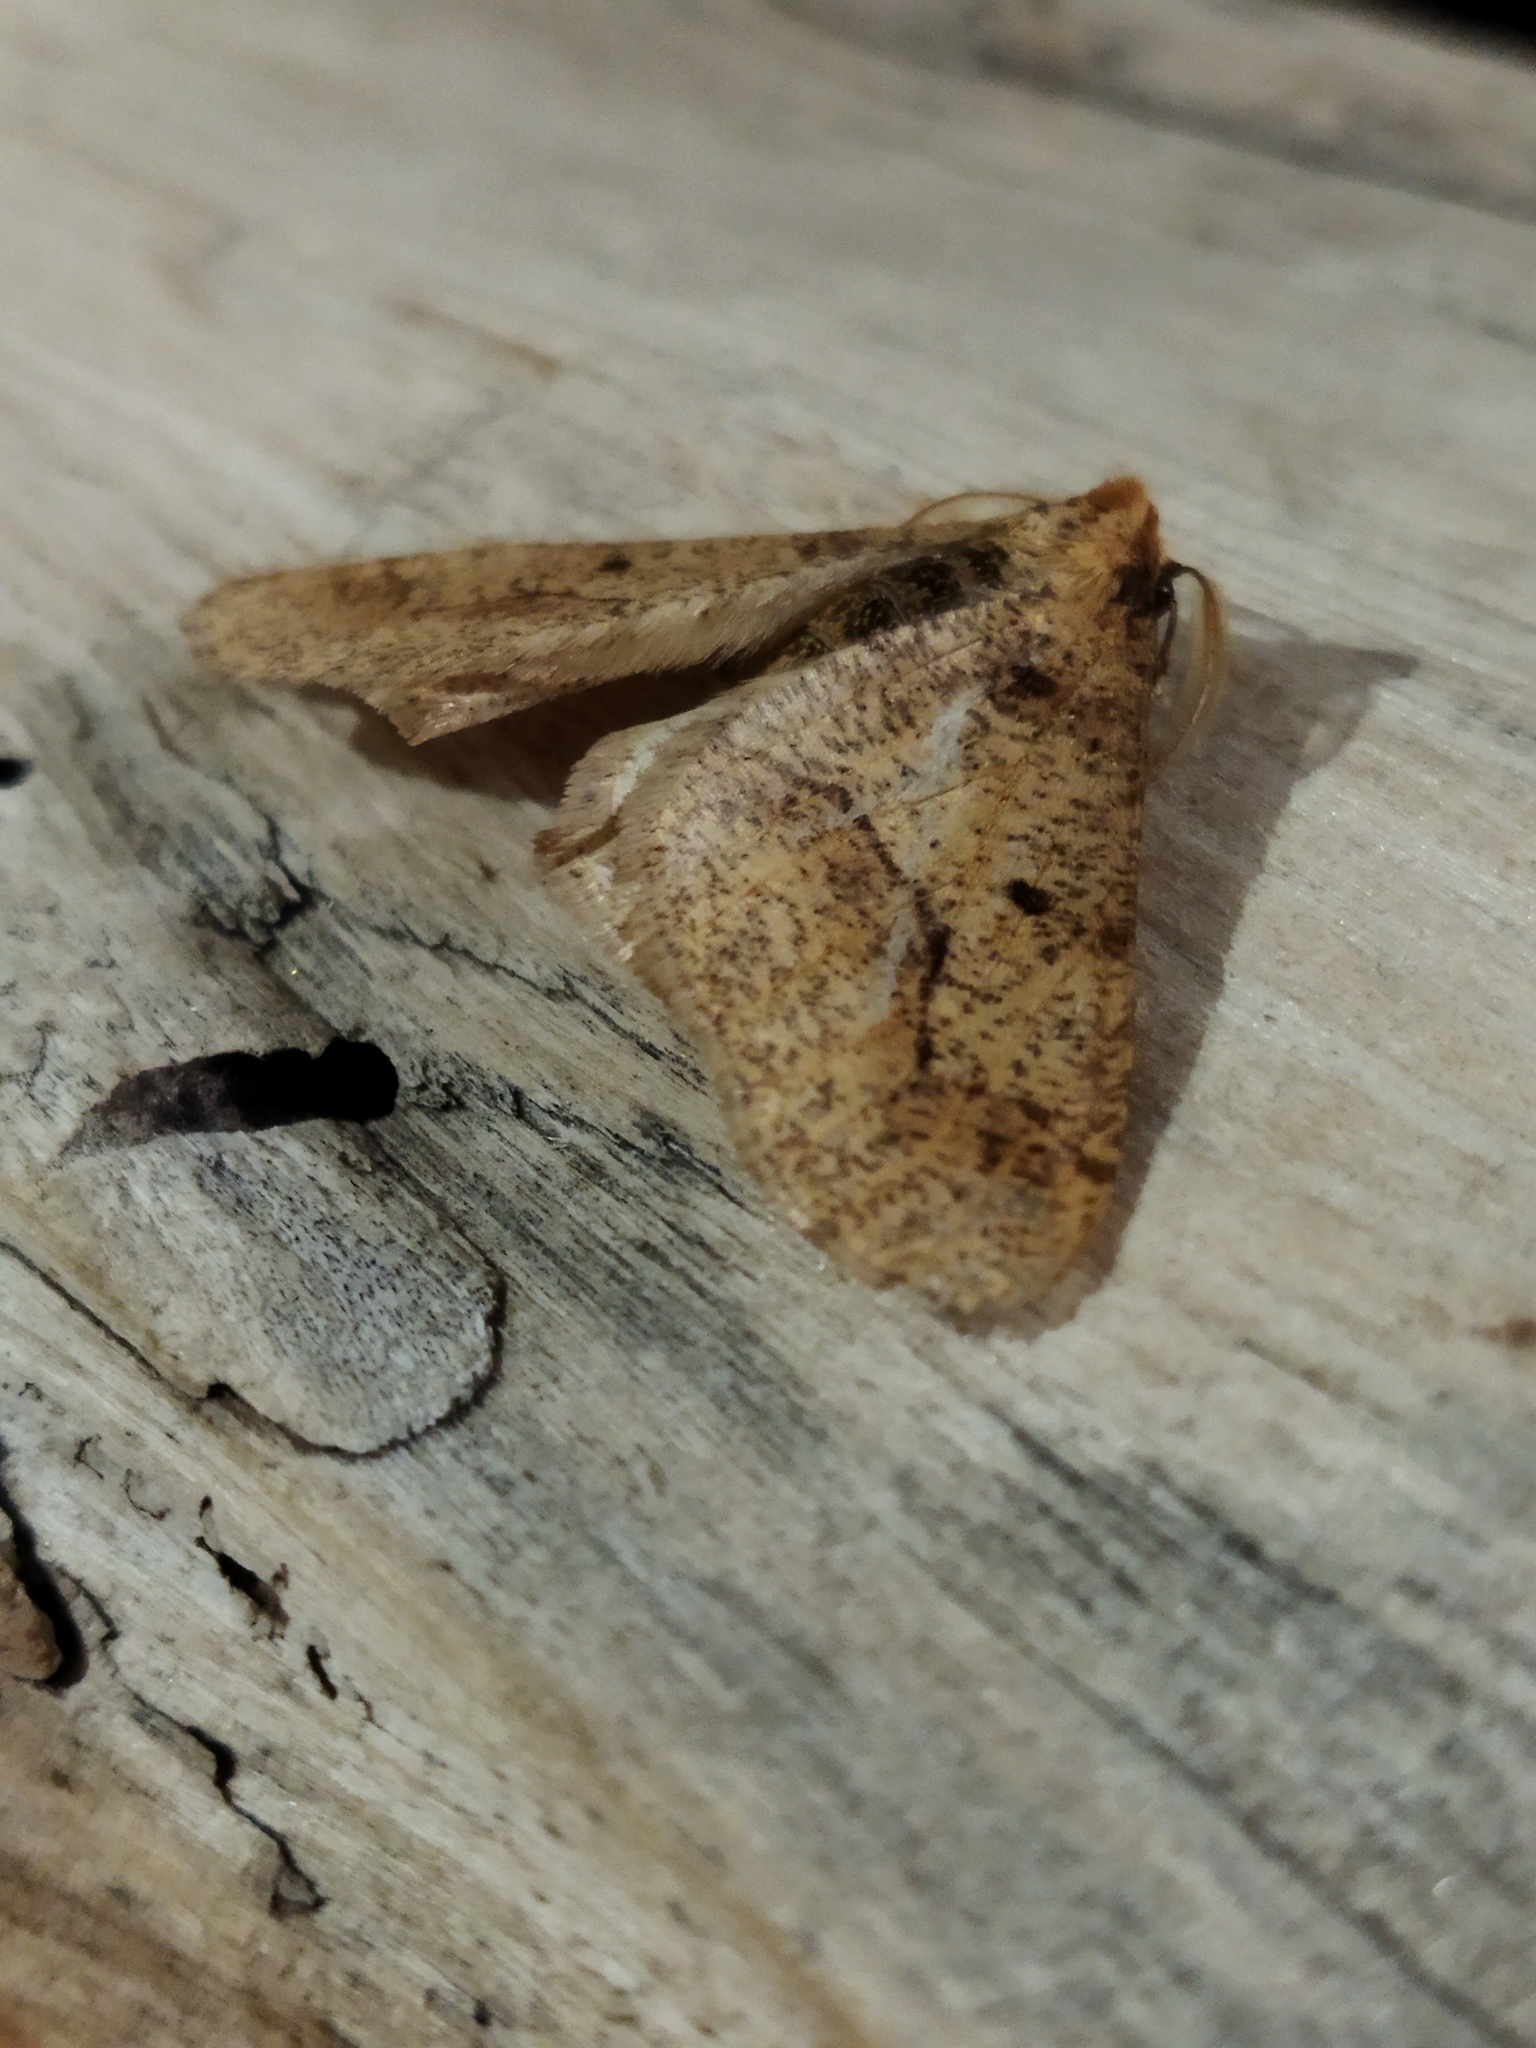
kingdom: Animalia
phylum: Arthropoda
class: Insecta
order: Lepidoptera
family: Geometridae
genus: Erannis
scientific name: Erannis defoliaria
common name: Mottled umber
